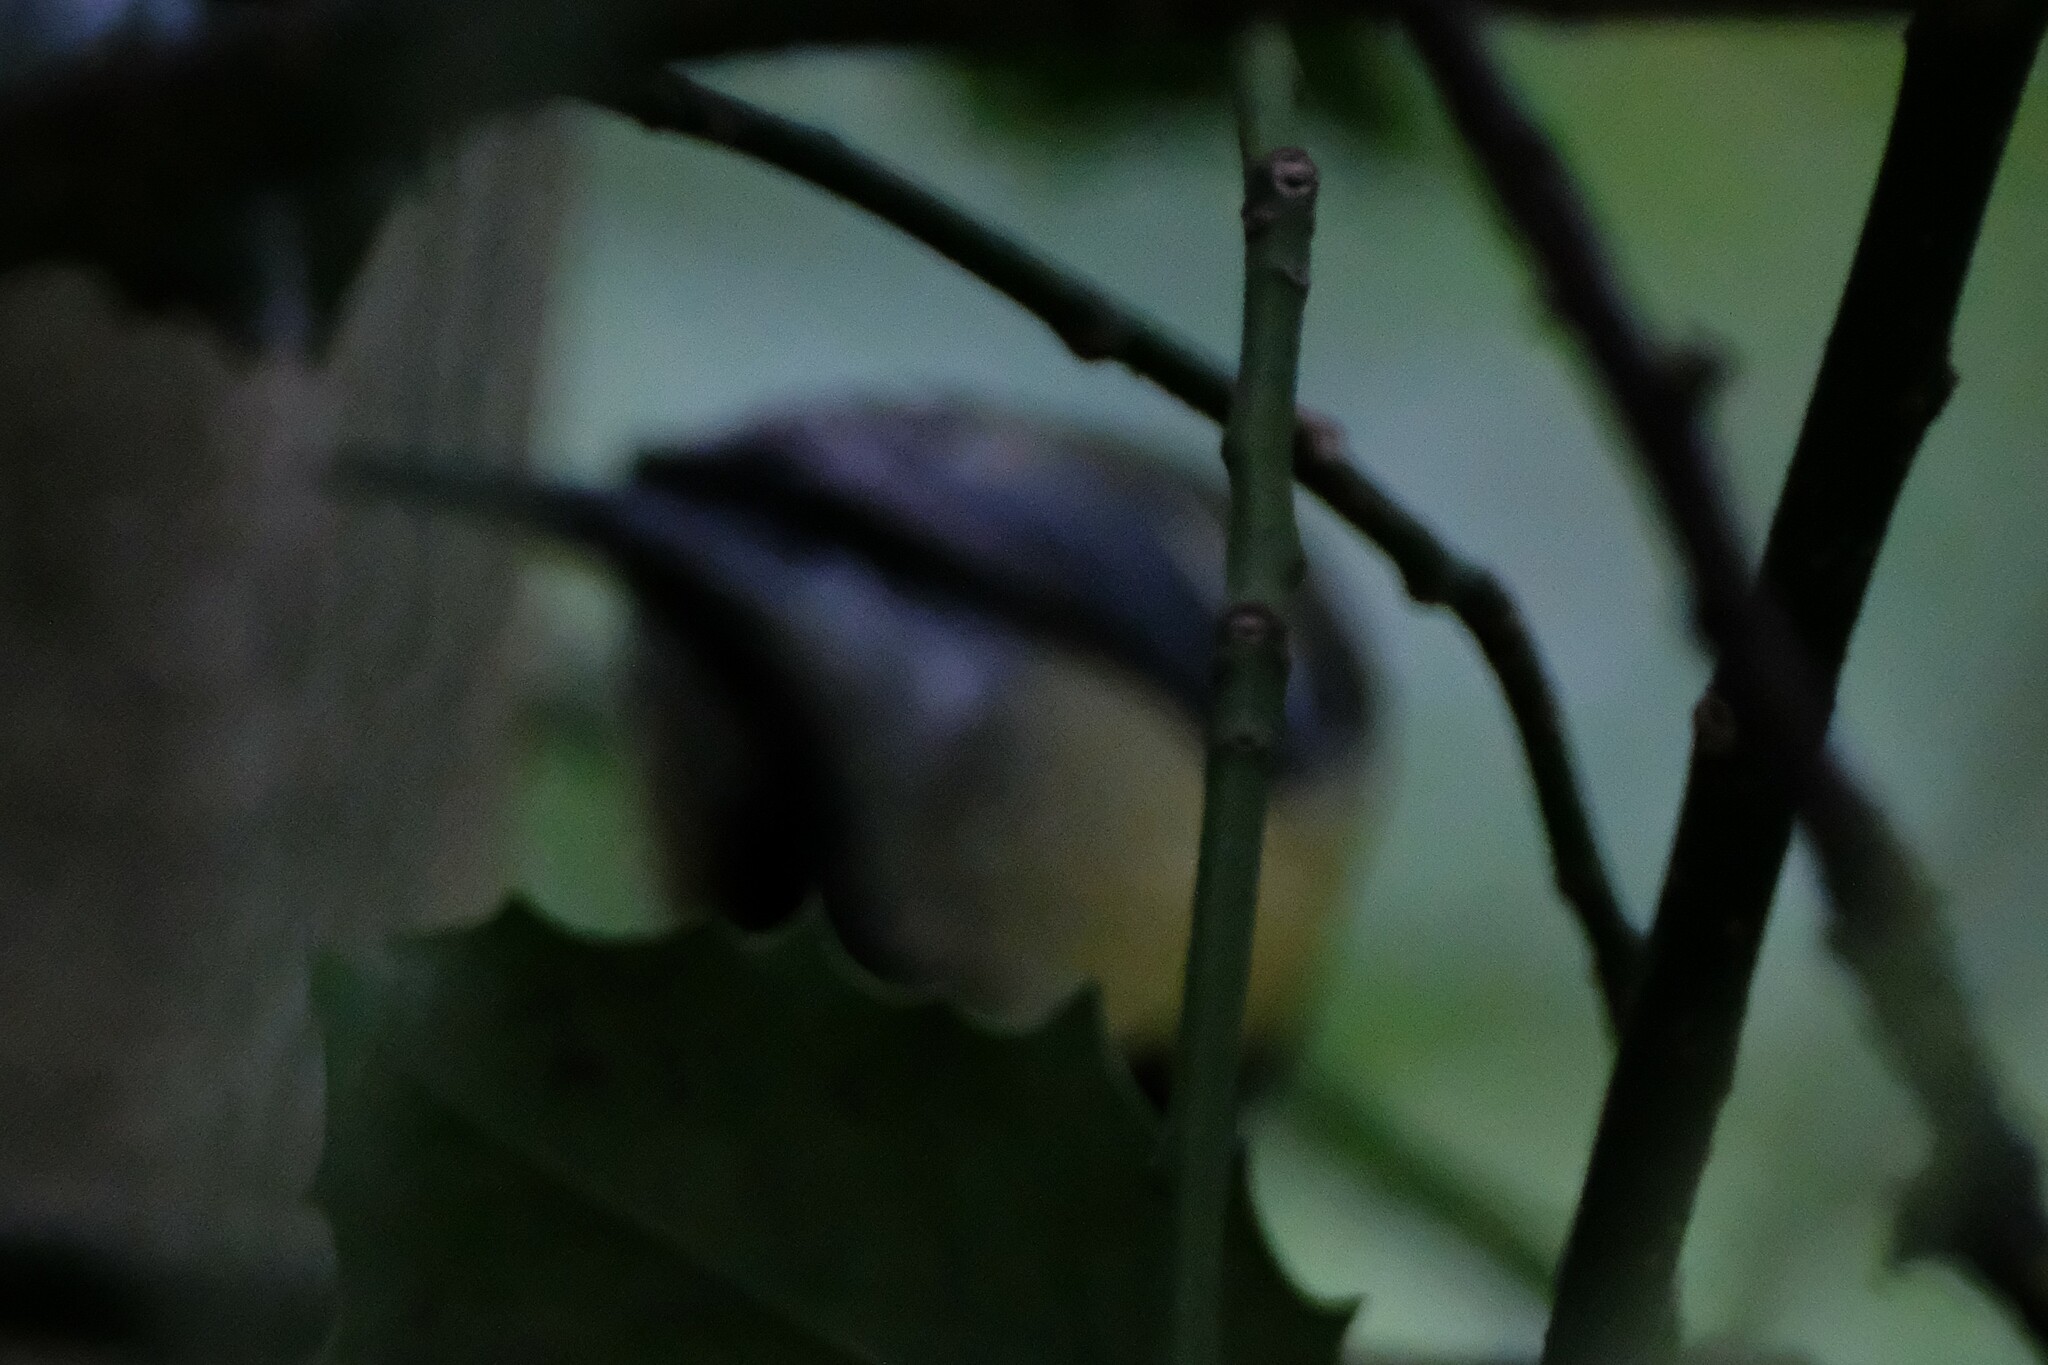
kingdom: Animalia
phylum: Chordata
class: Aves
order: Passeriformes
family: Paridae
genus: Cyanistes
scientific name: Cyanistes caeruleus
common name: Eurasian blue tit
